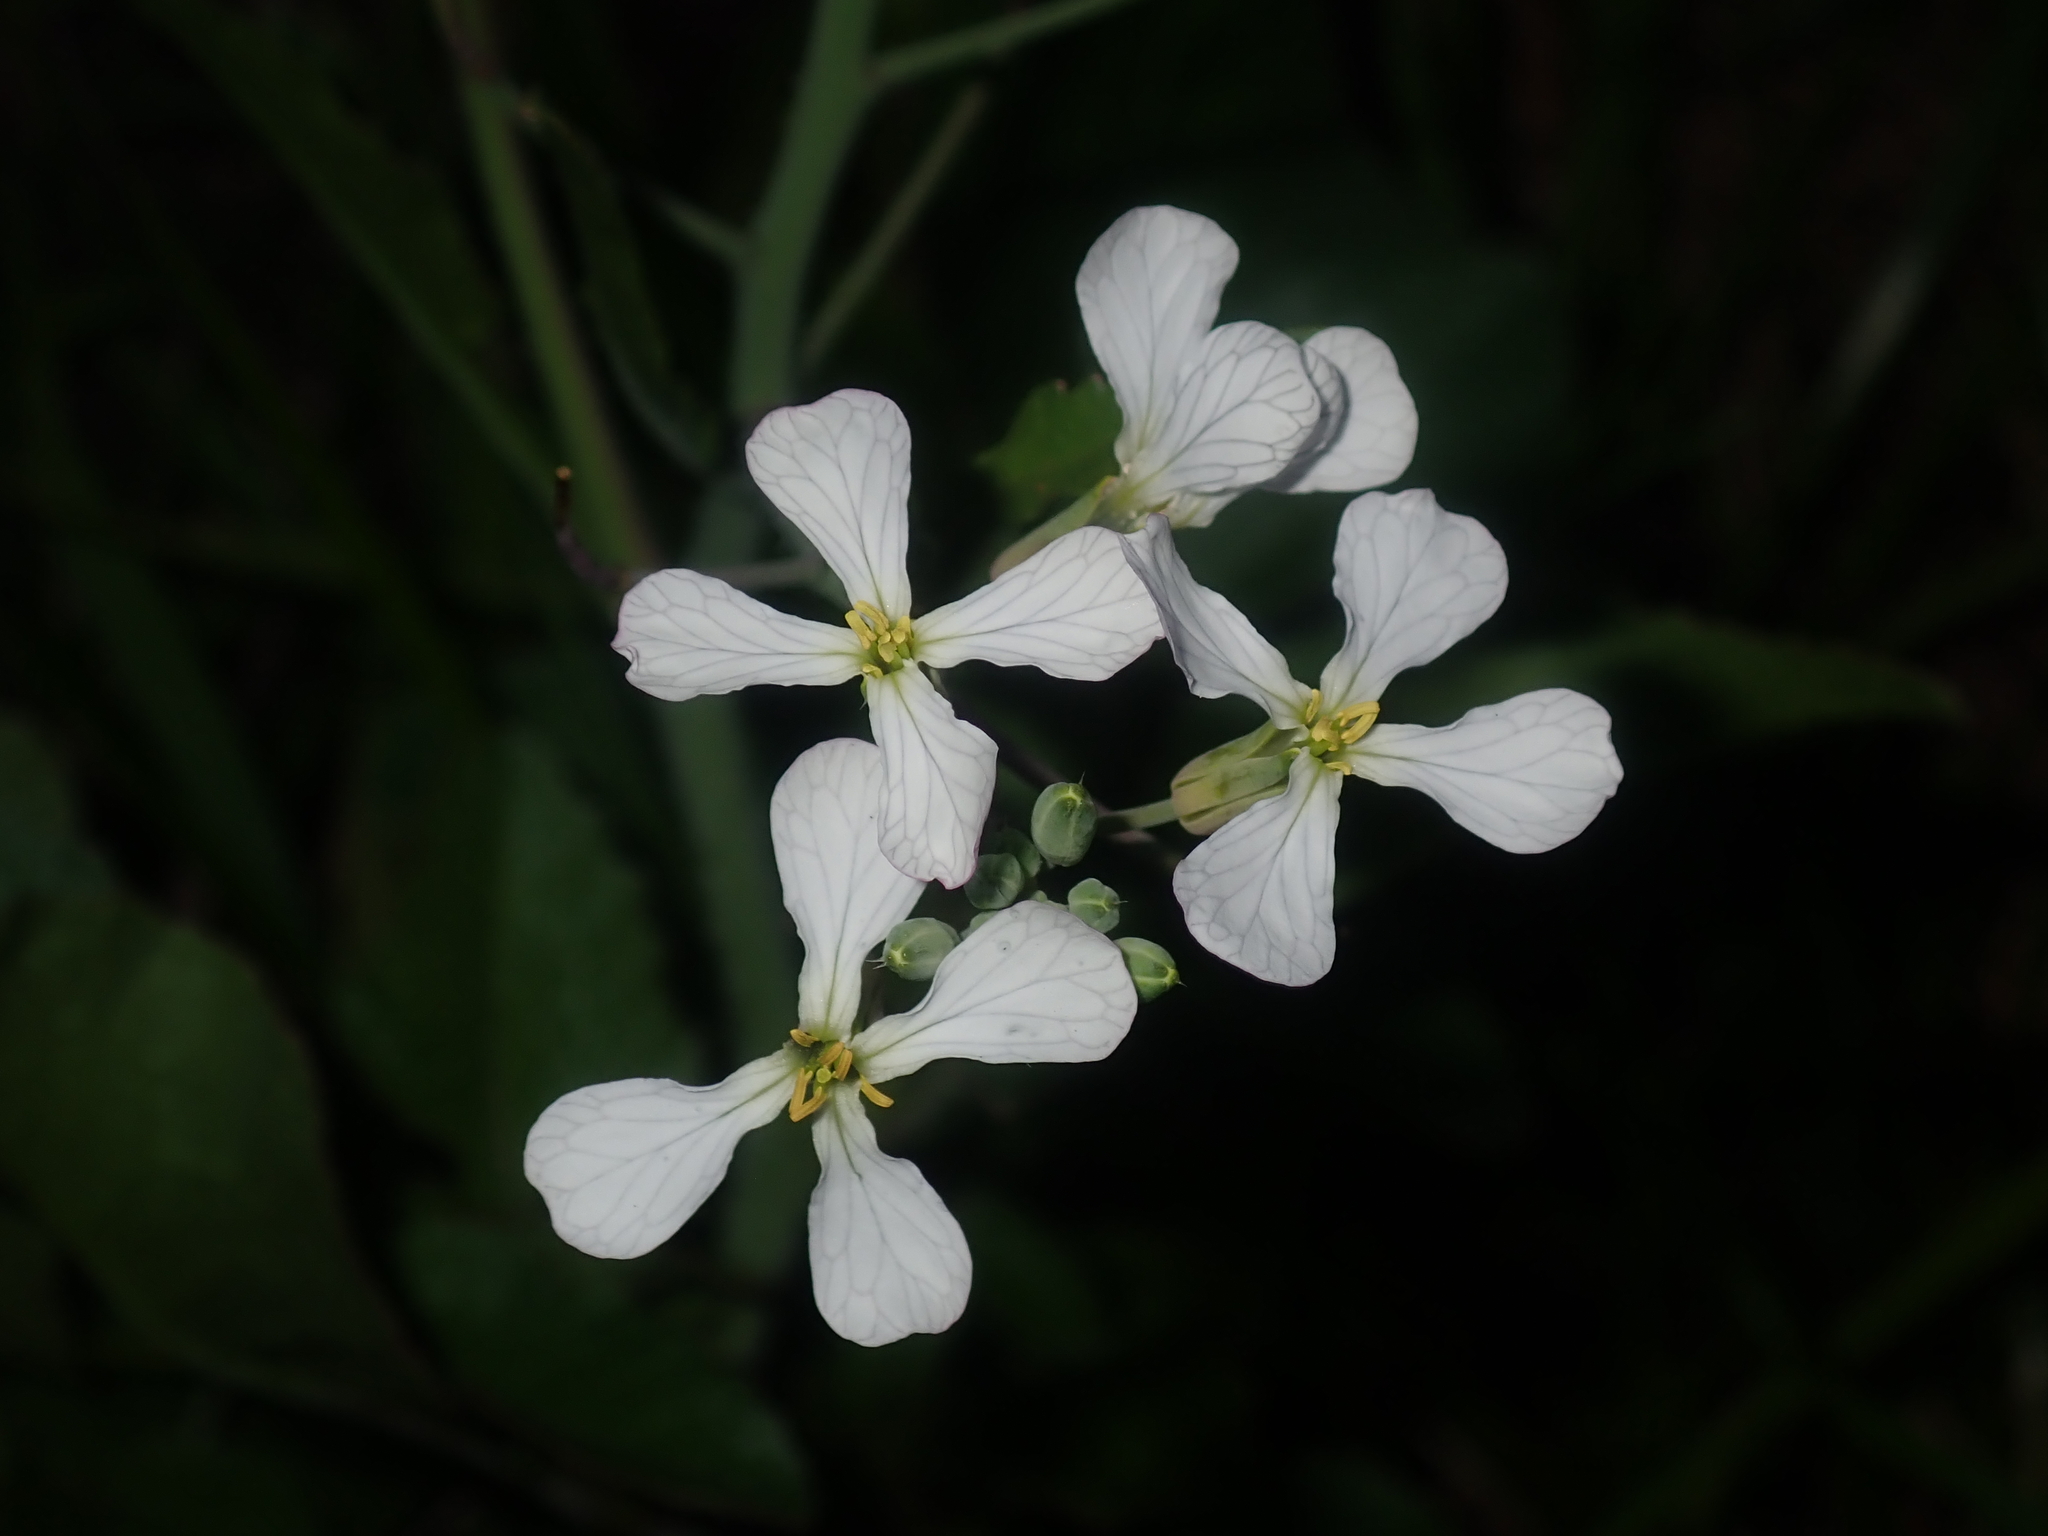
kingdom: Plantae
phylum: Tracheophyta
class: Magnoliopsida
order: Brassicales
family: Brassicaceae
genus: Raphanus
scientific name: Raphanus raphanistrum
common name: Wild radish
